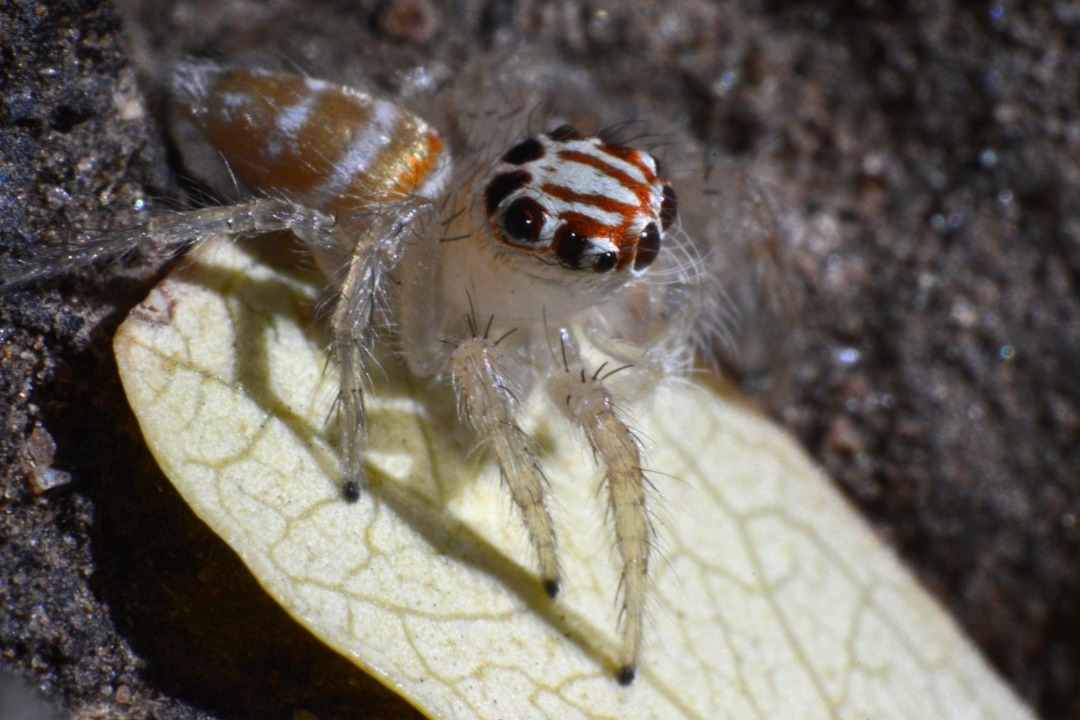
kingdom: Animalia
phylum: Arthropoda
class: Arachnida
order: Araneae
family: Salticidae
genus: Brancus
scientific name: Brancus mustelus
